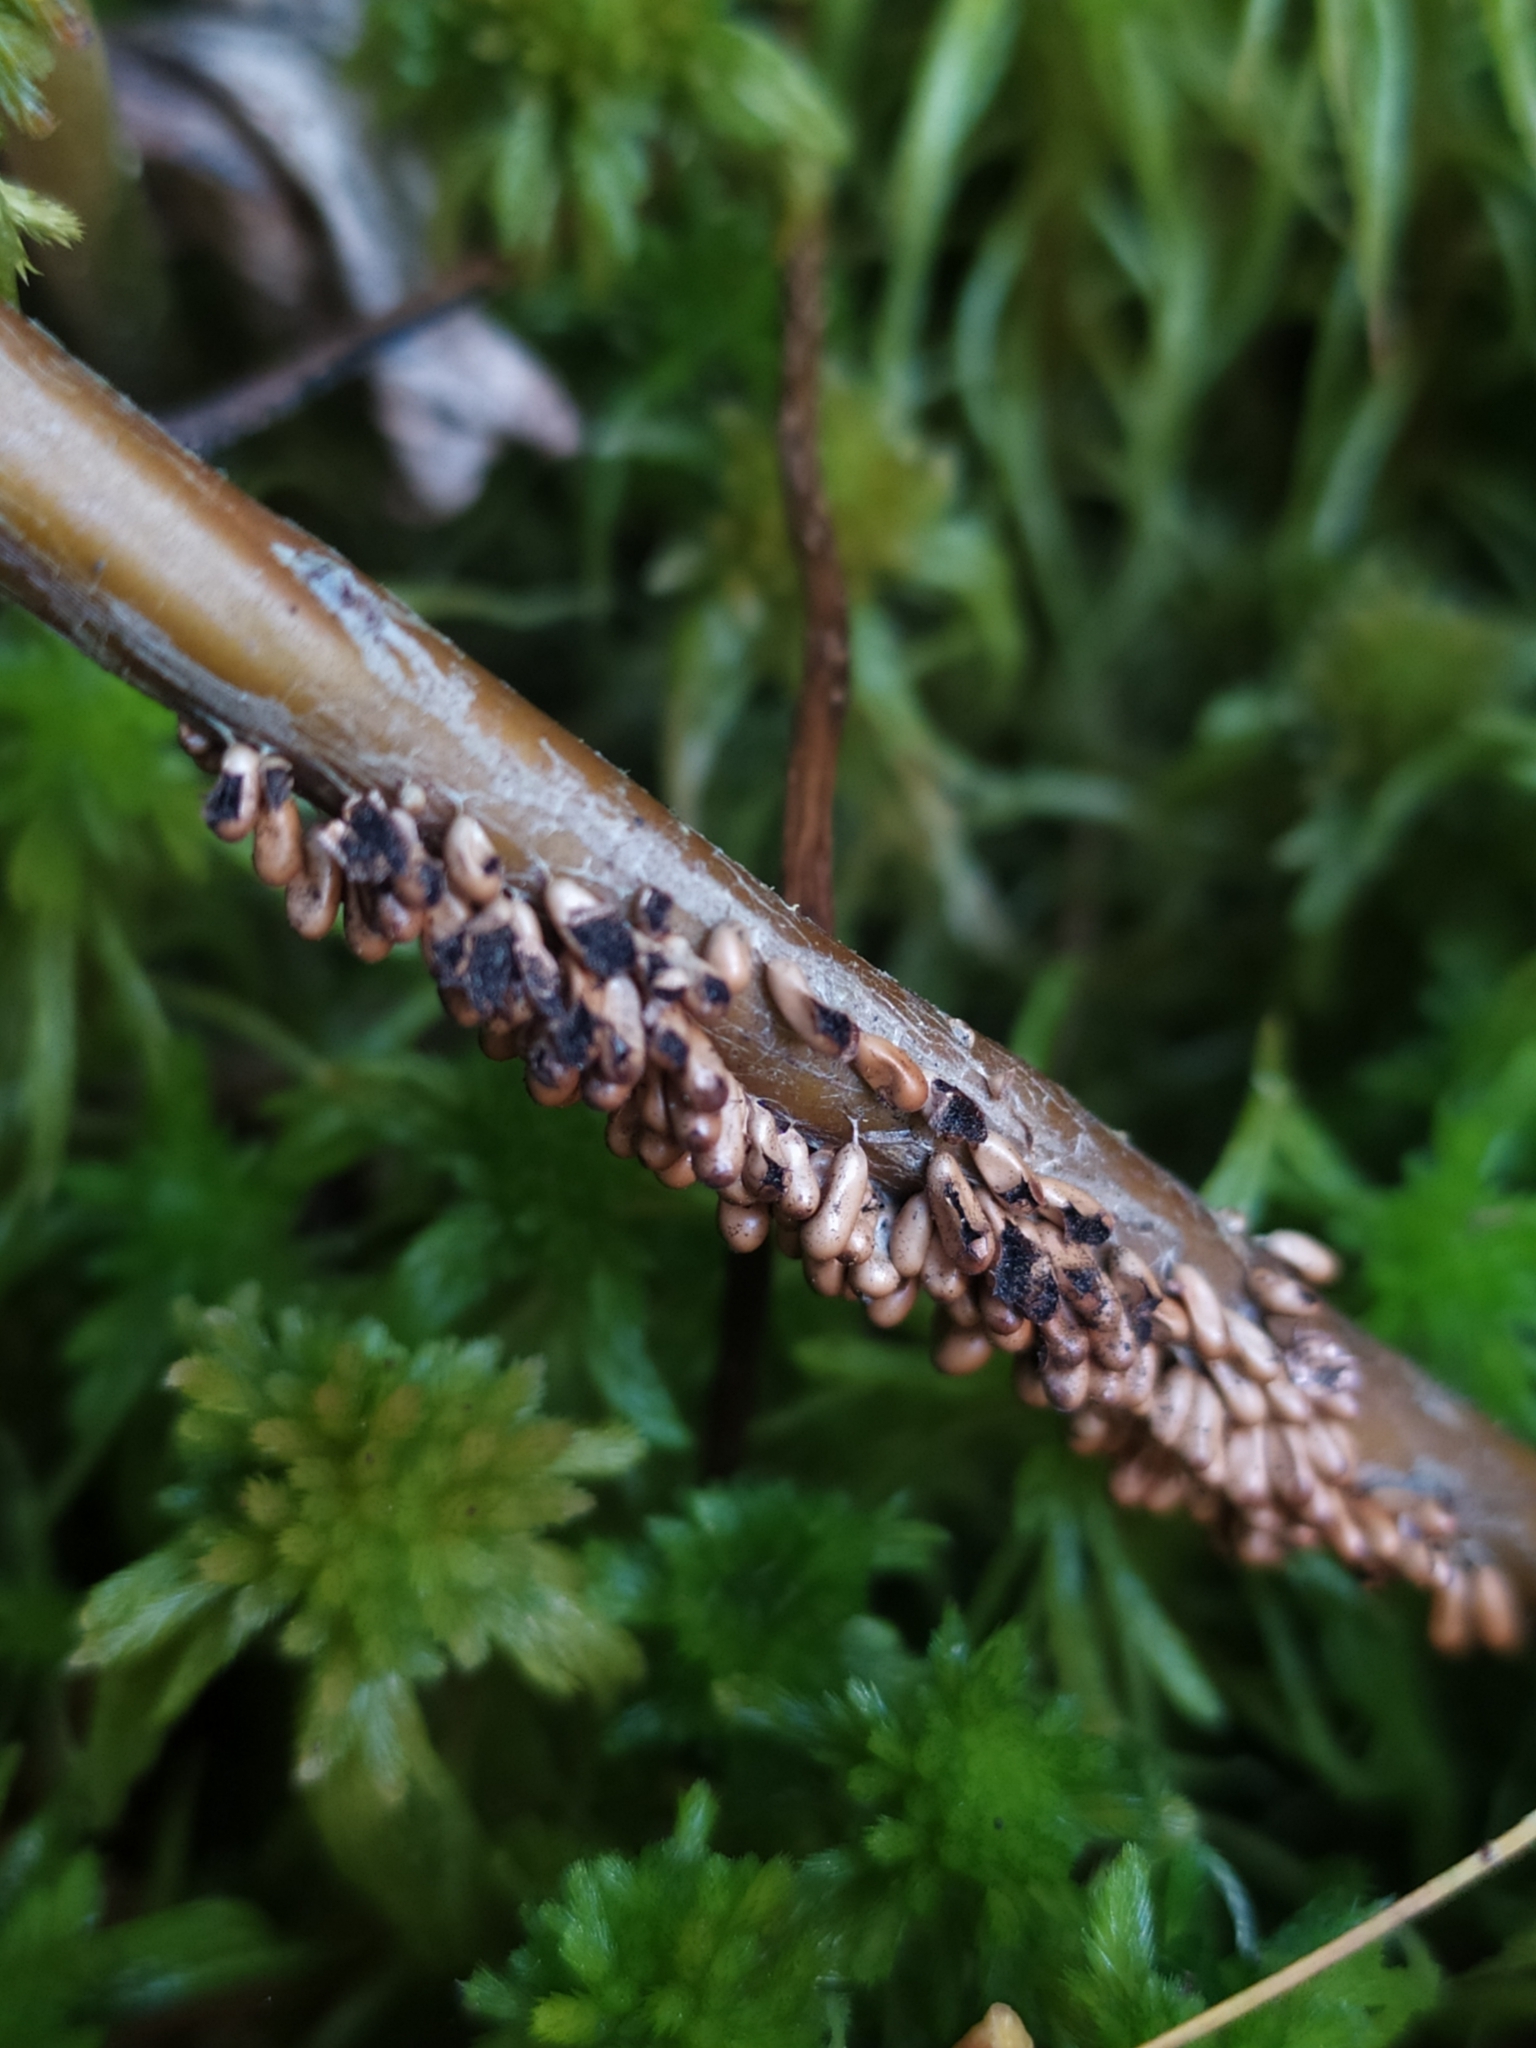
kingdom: Protozoa
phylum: Mycetozoa
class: Myxomycetes
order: Physarales
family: Physaraceae
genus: Leocarpus
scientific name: Leocarpus fragilis
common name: Insect-egg slime
